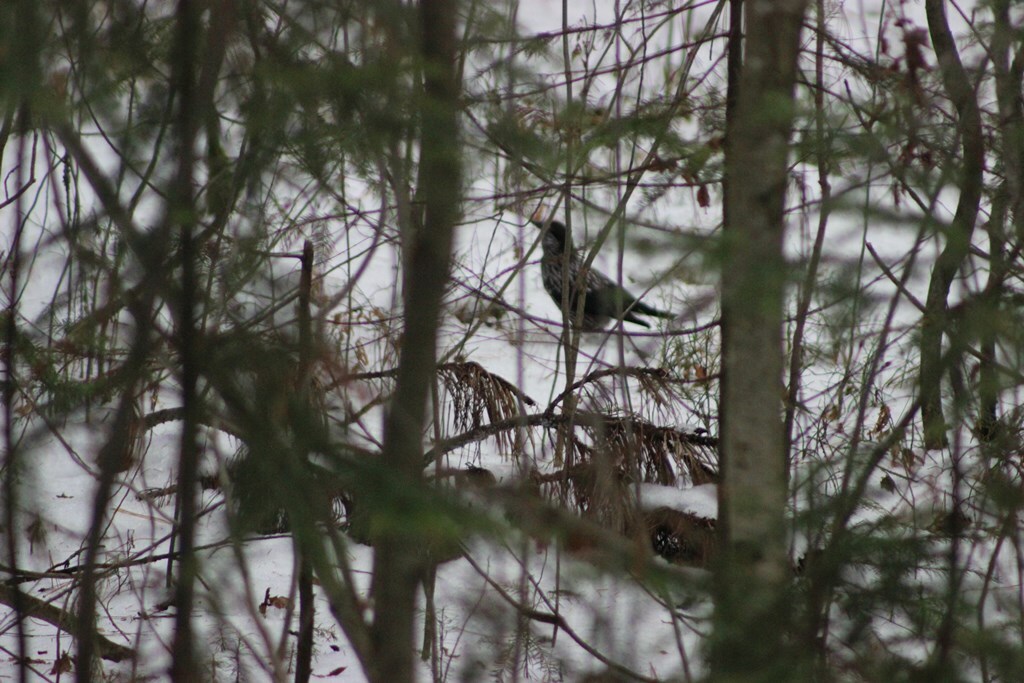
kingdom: Animalia
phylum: Chordata
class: Aves
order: Passeriformes
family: Corvidae
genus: Nucifraga
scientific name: Nucifraga caryocatactes
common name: Spotted nutcracker
